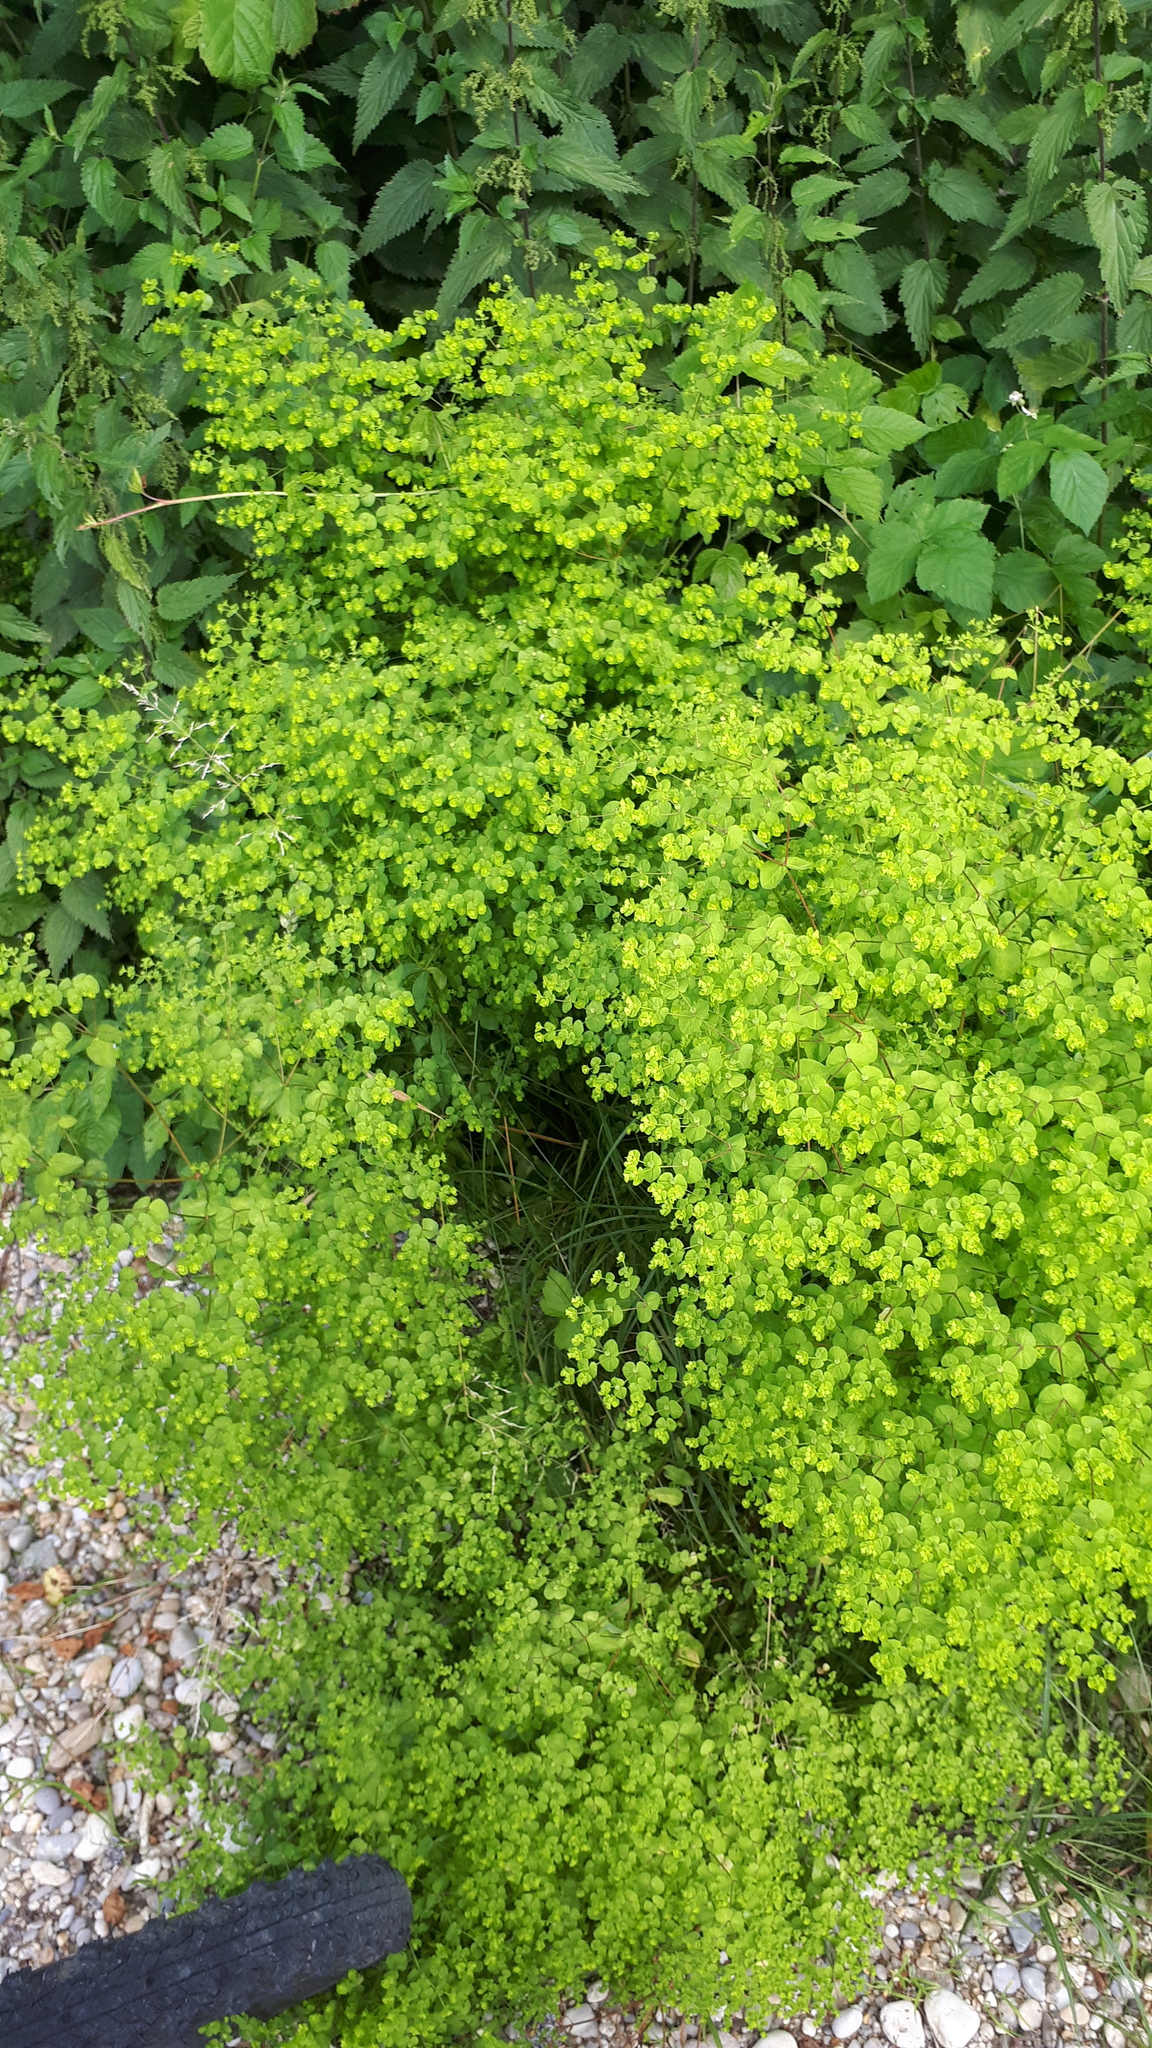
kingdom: Plantae
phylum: Tracheophyta
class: Magnoliopsida
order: Malpighiales
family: Euphorbiaceae
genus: Euphorbia
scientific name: Euphorbia stricta
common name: Upright spurge
